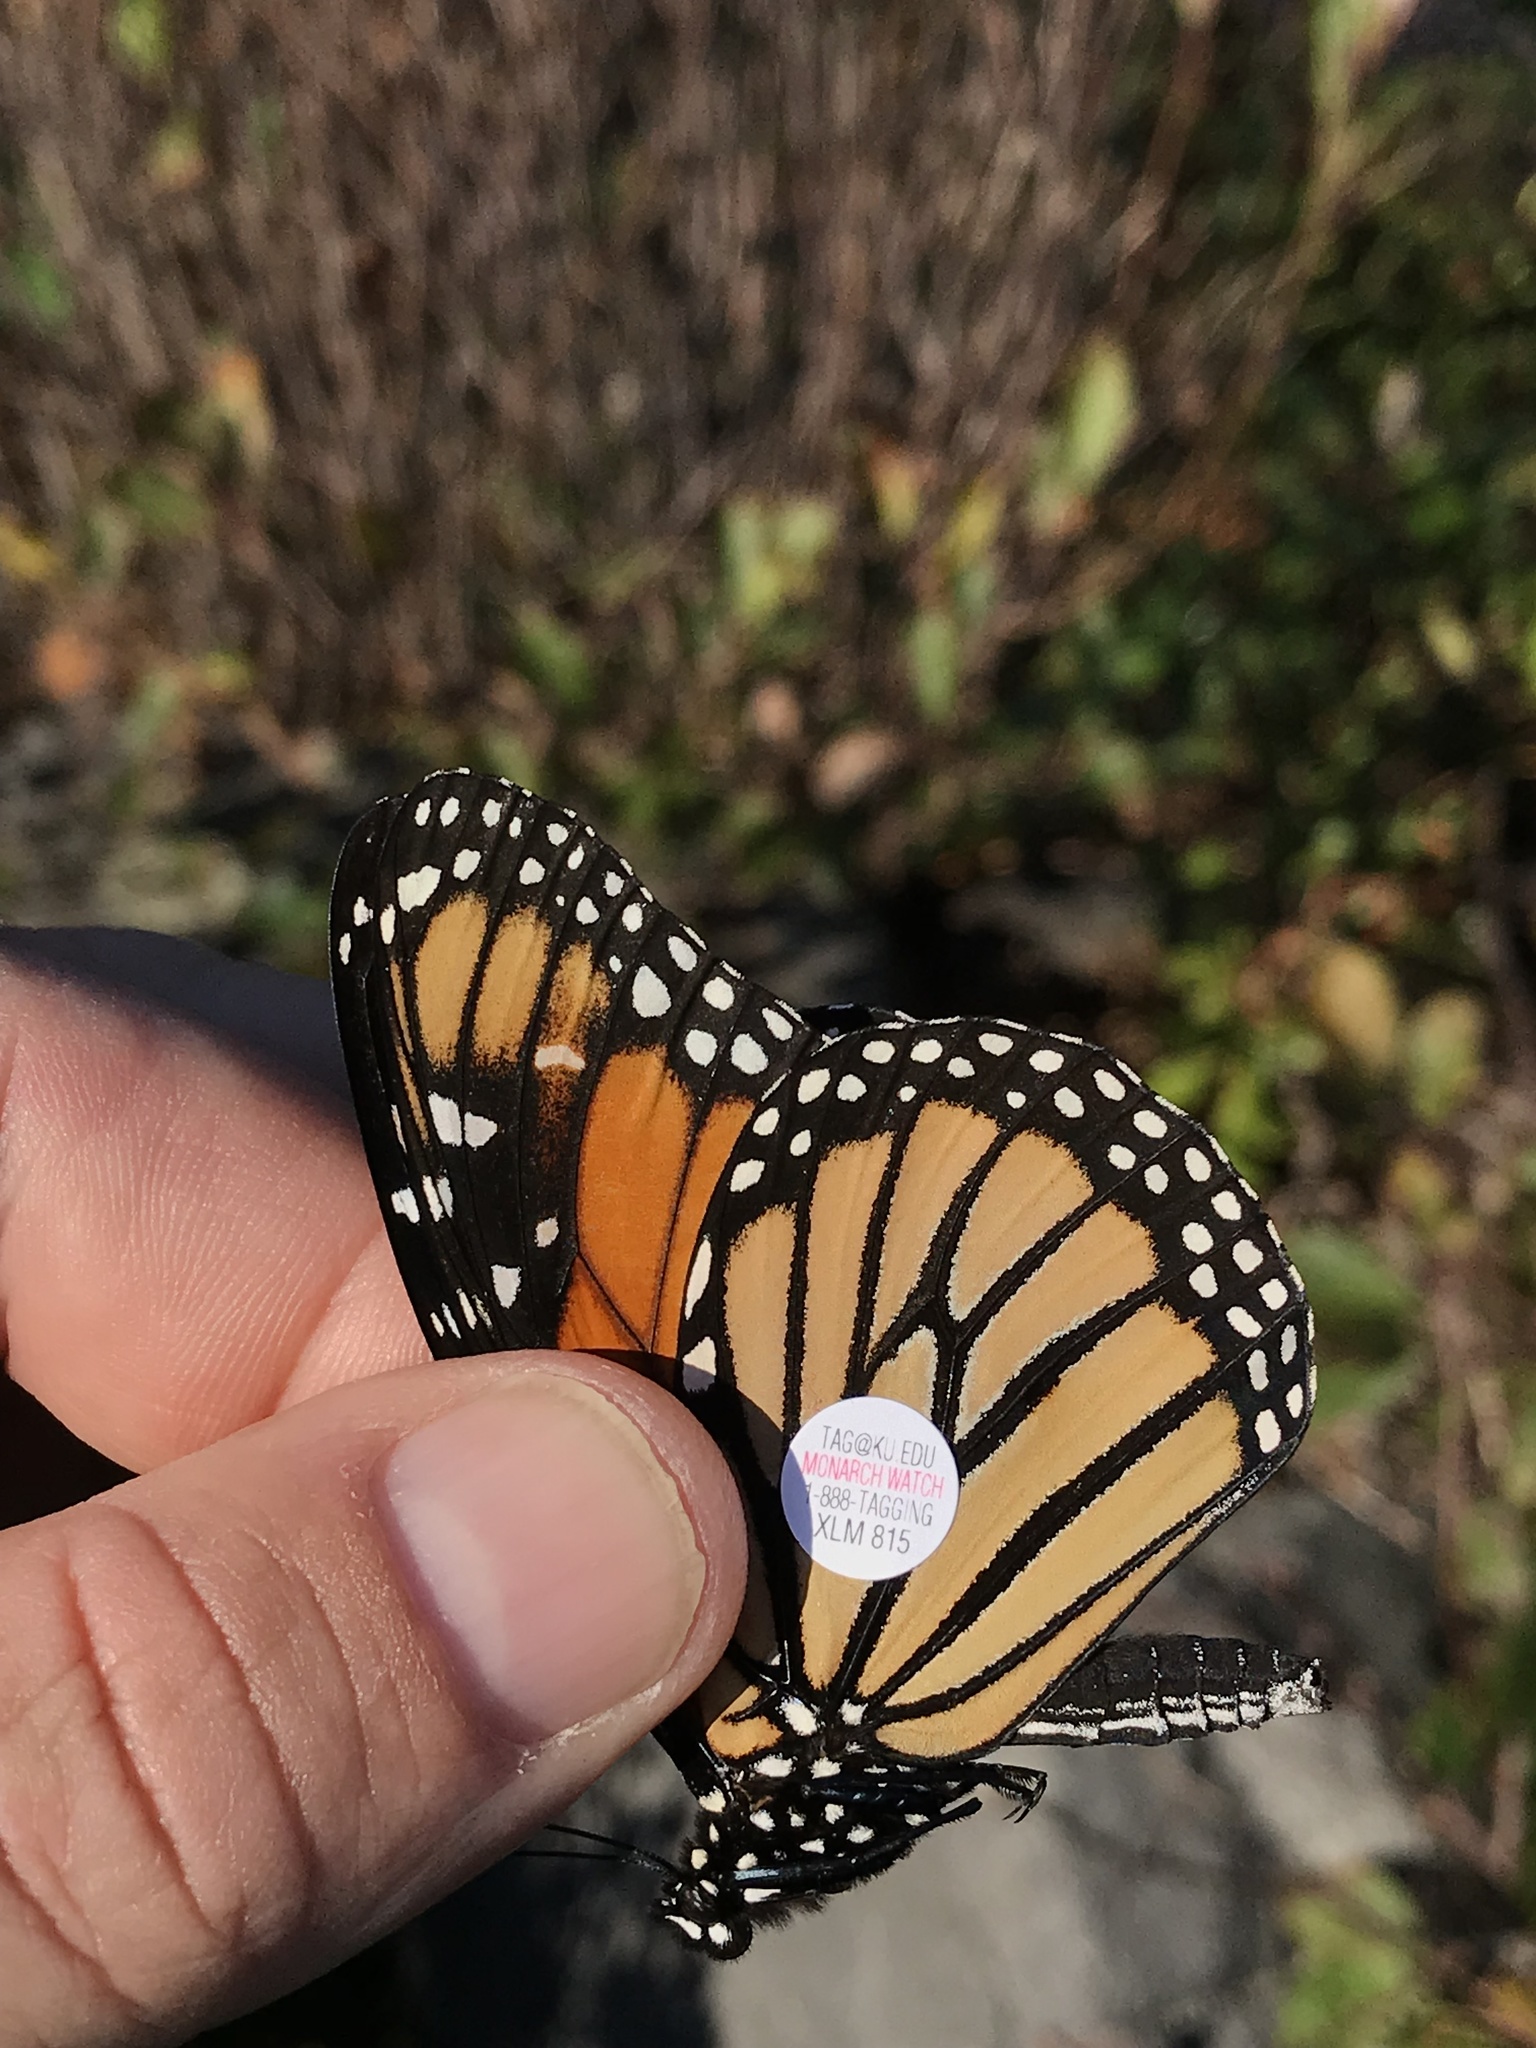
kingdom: Animalia
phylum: Arthropoda
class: Insecta
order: Lepidoptera
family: Nymphalidae
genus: Danaus
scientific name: Danaus plexippus
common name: Monarch
